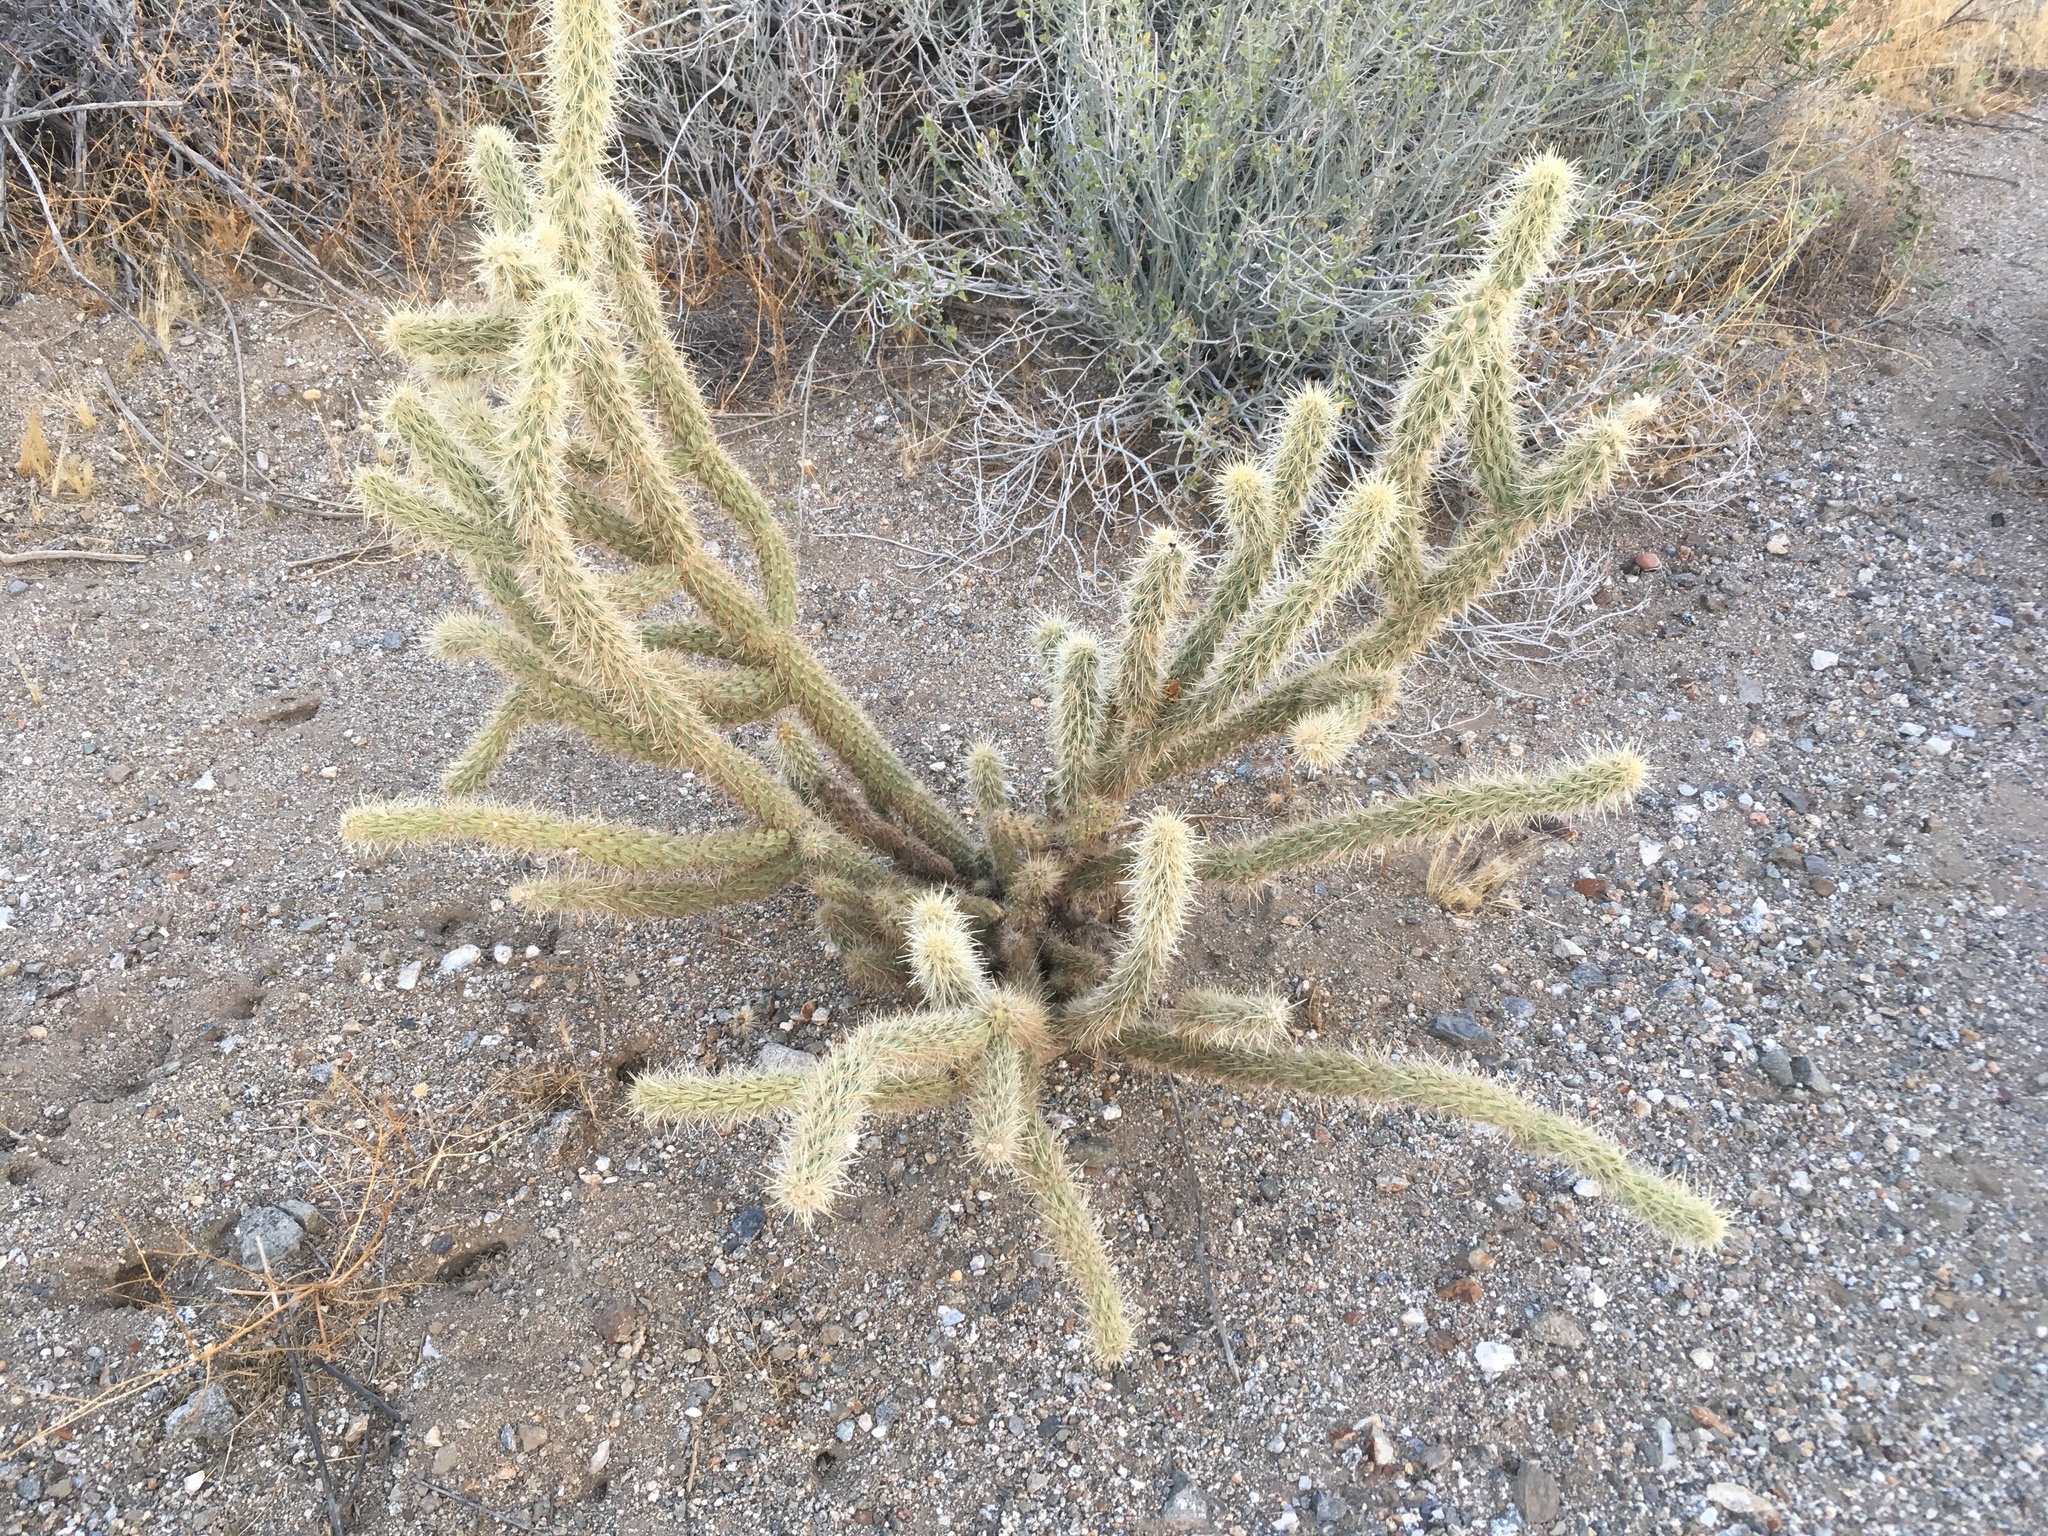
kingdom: Plantae
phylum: Tracheophyta
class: Magnoliopsida
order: Caryophyllales
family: Cactaceae
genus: Cylindropuntia
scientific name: Cylindropuntia ganderi
